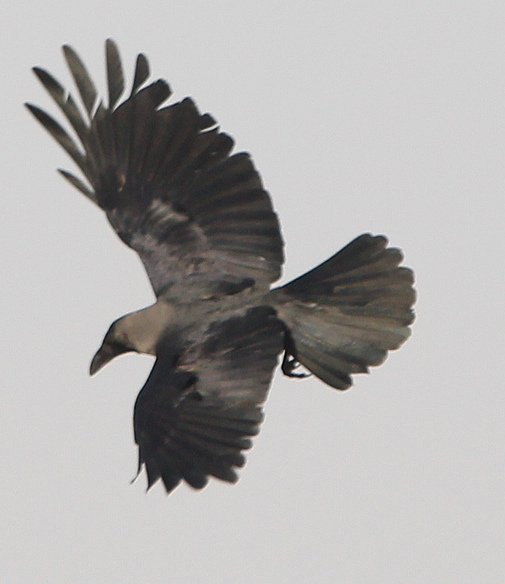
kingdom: Animalia
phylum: Chordata
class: Aves
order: Passeriformes
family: Corvidae
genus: Corvus
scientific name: Corvus splendens
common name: House crow
